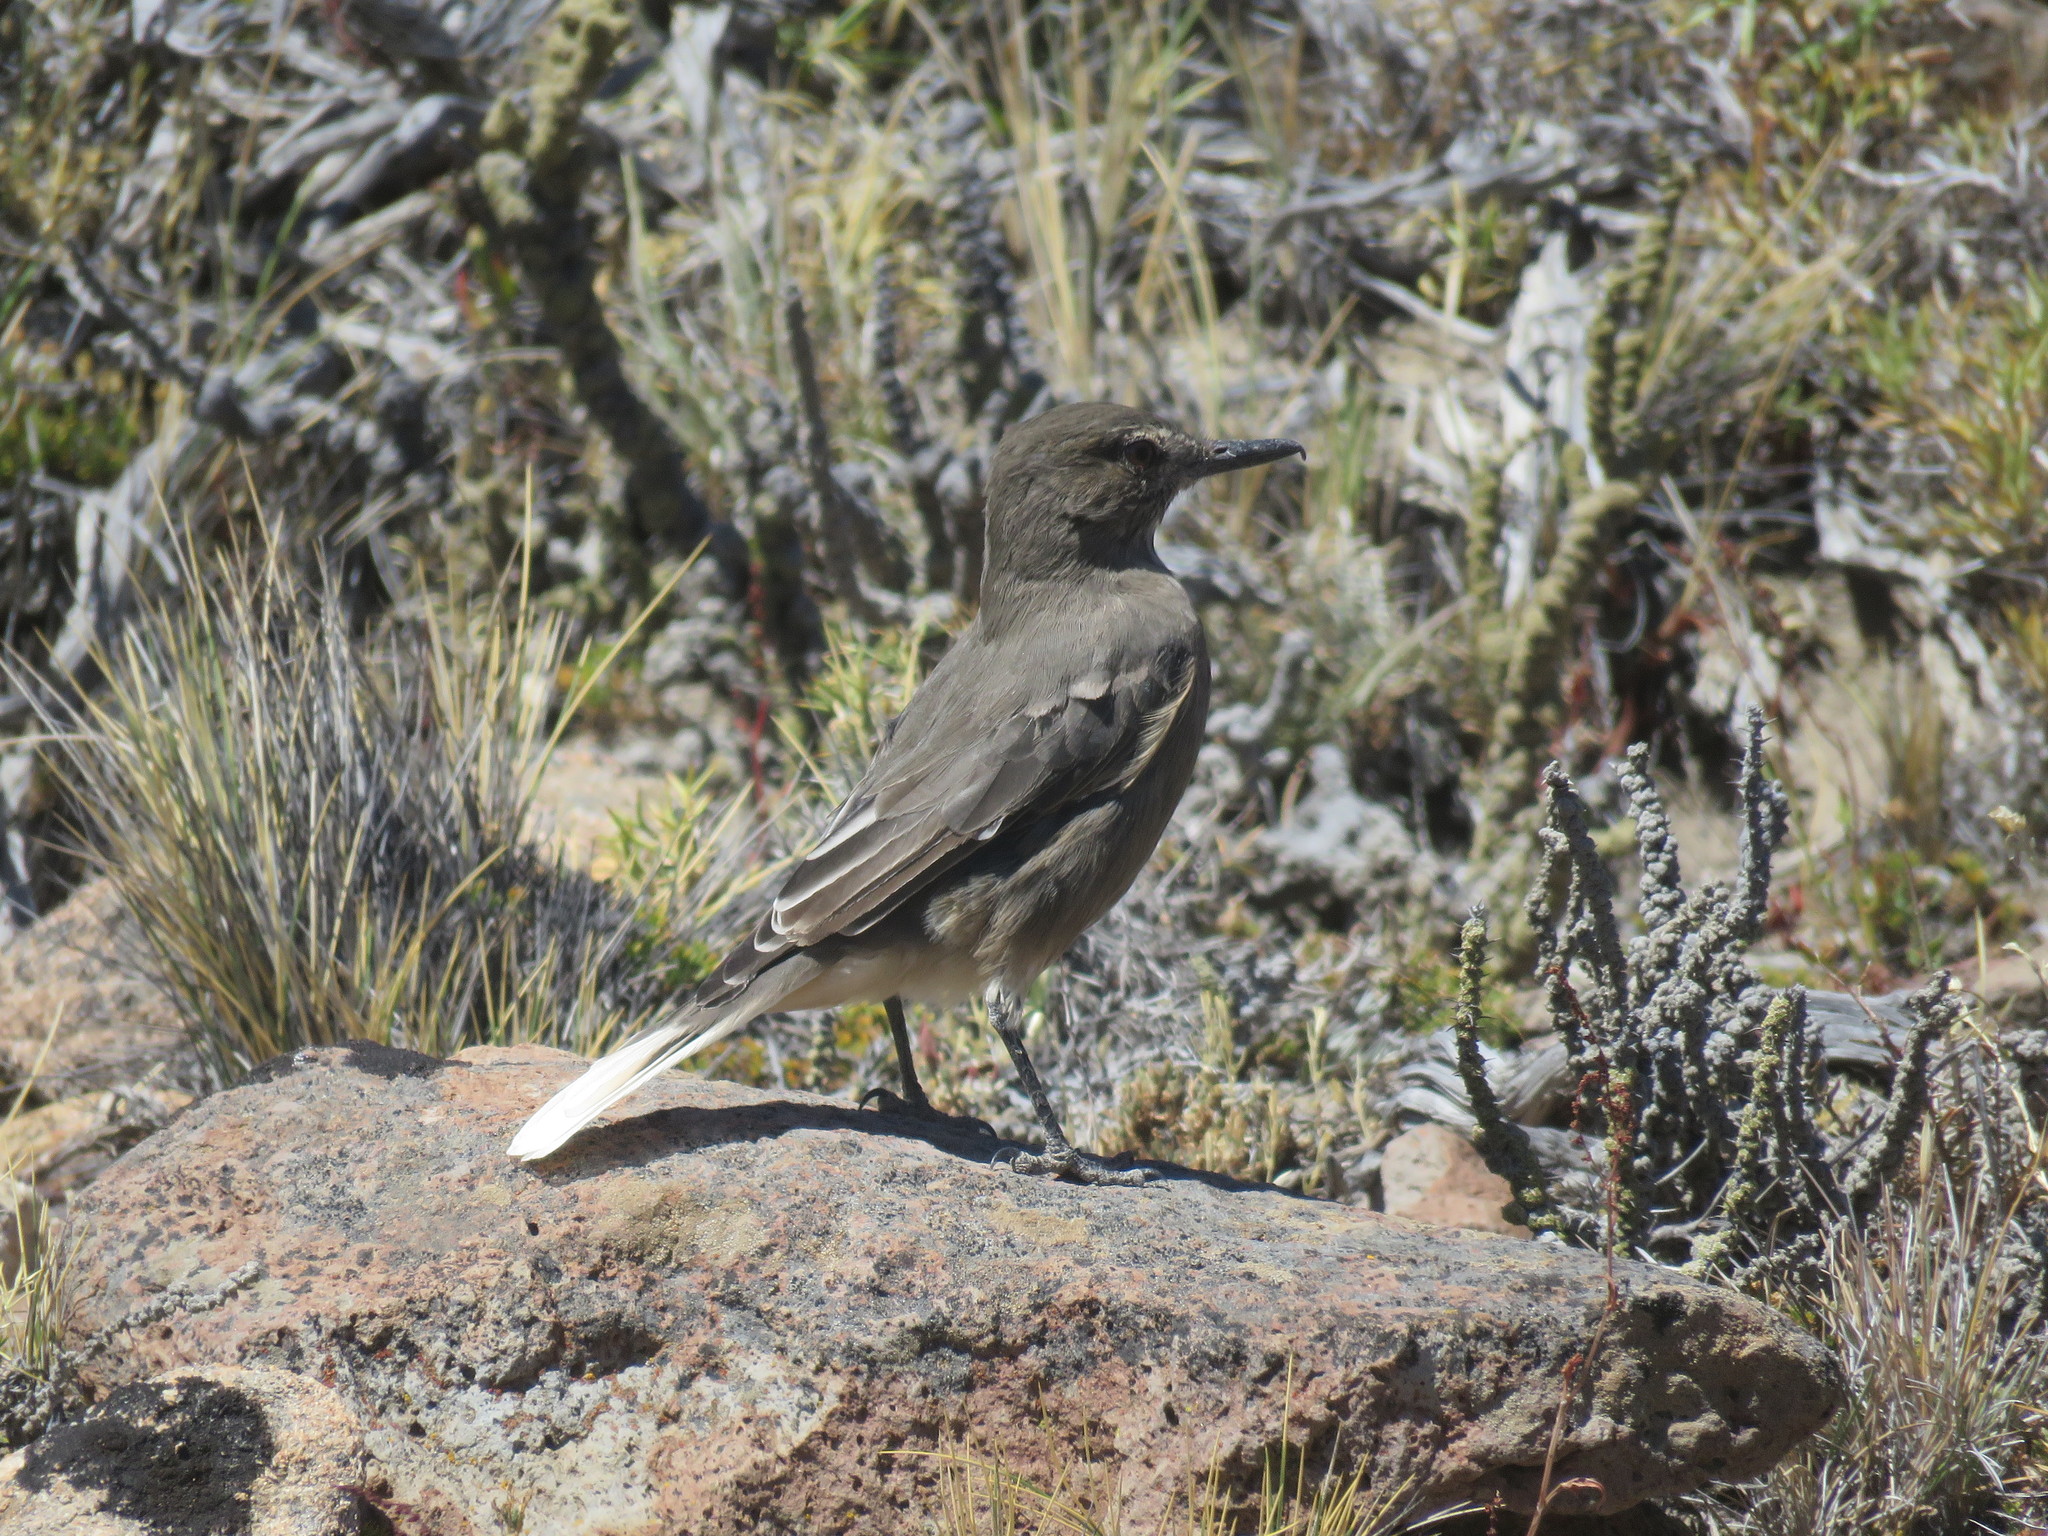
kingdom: Animalia
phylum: Chordata
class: Aves
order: Passeriformes
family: Tyrannidae
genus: Agriornis
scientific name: Agriornis montanus
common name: Black-billed shrike-tyrant
